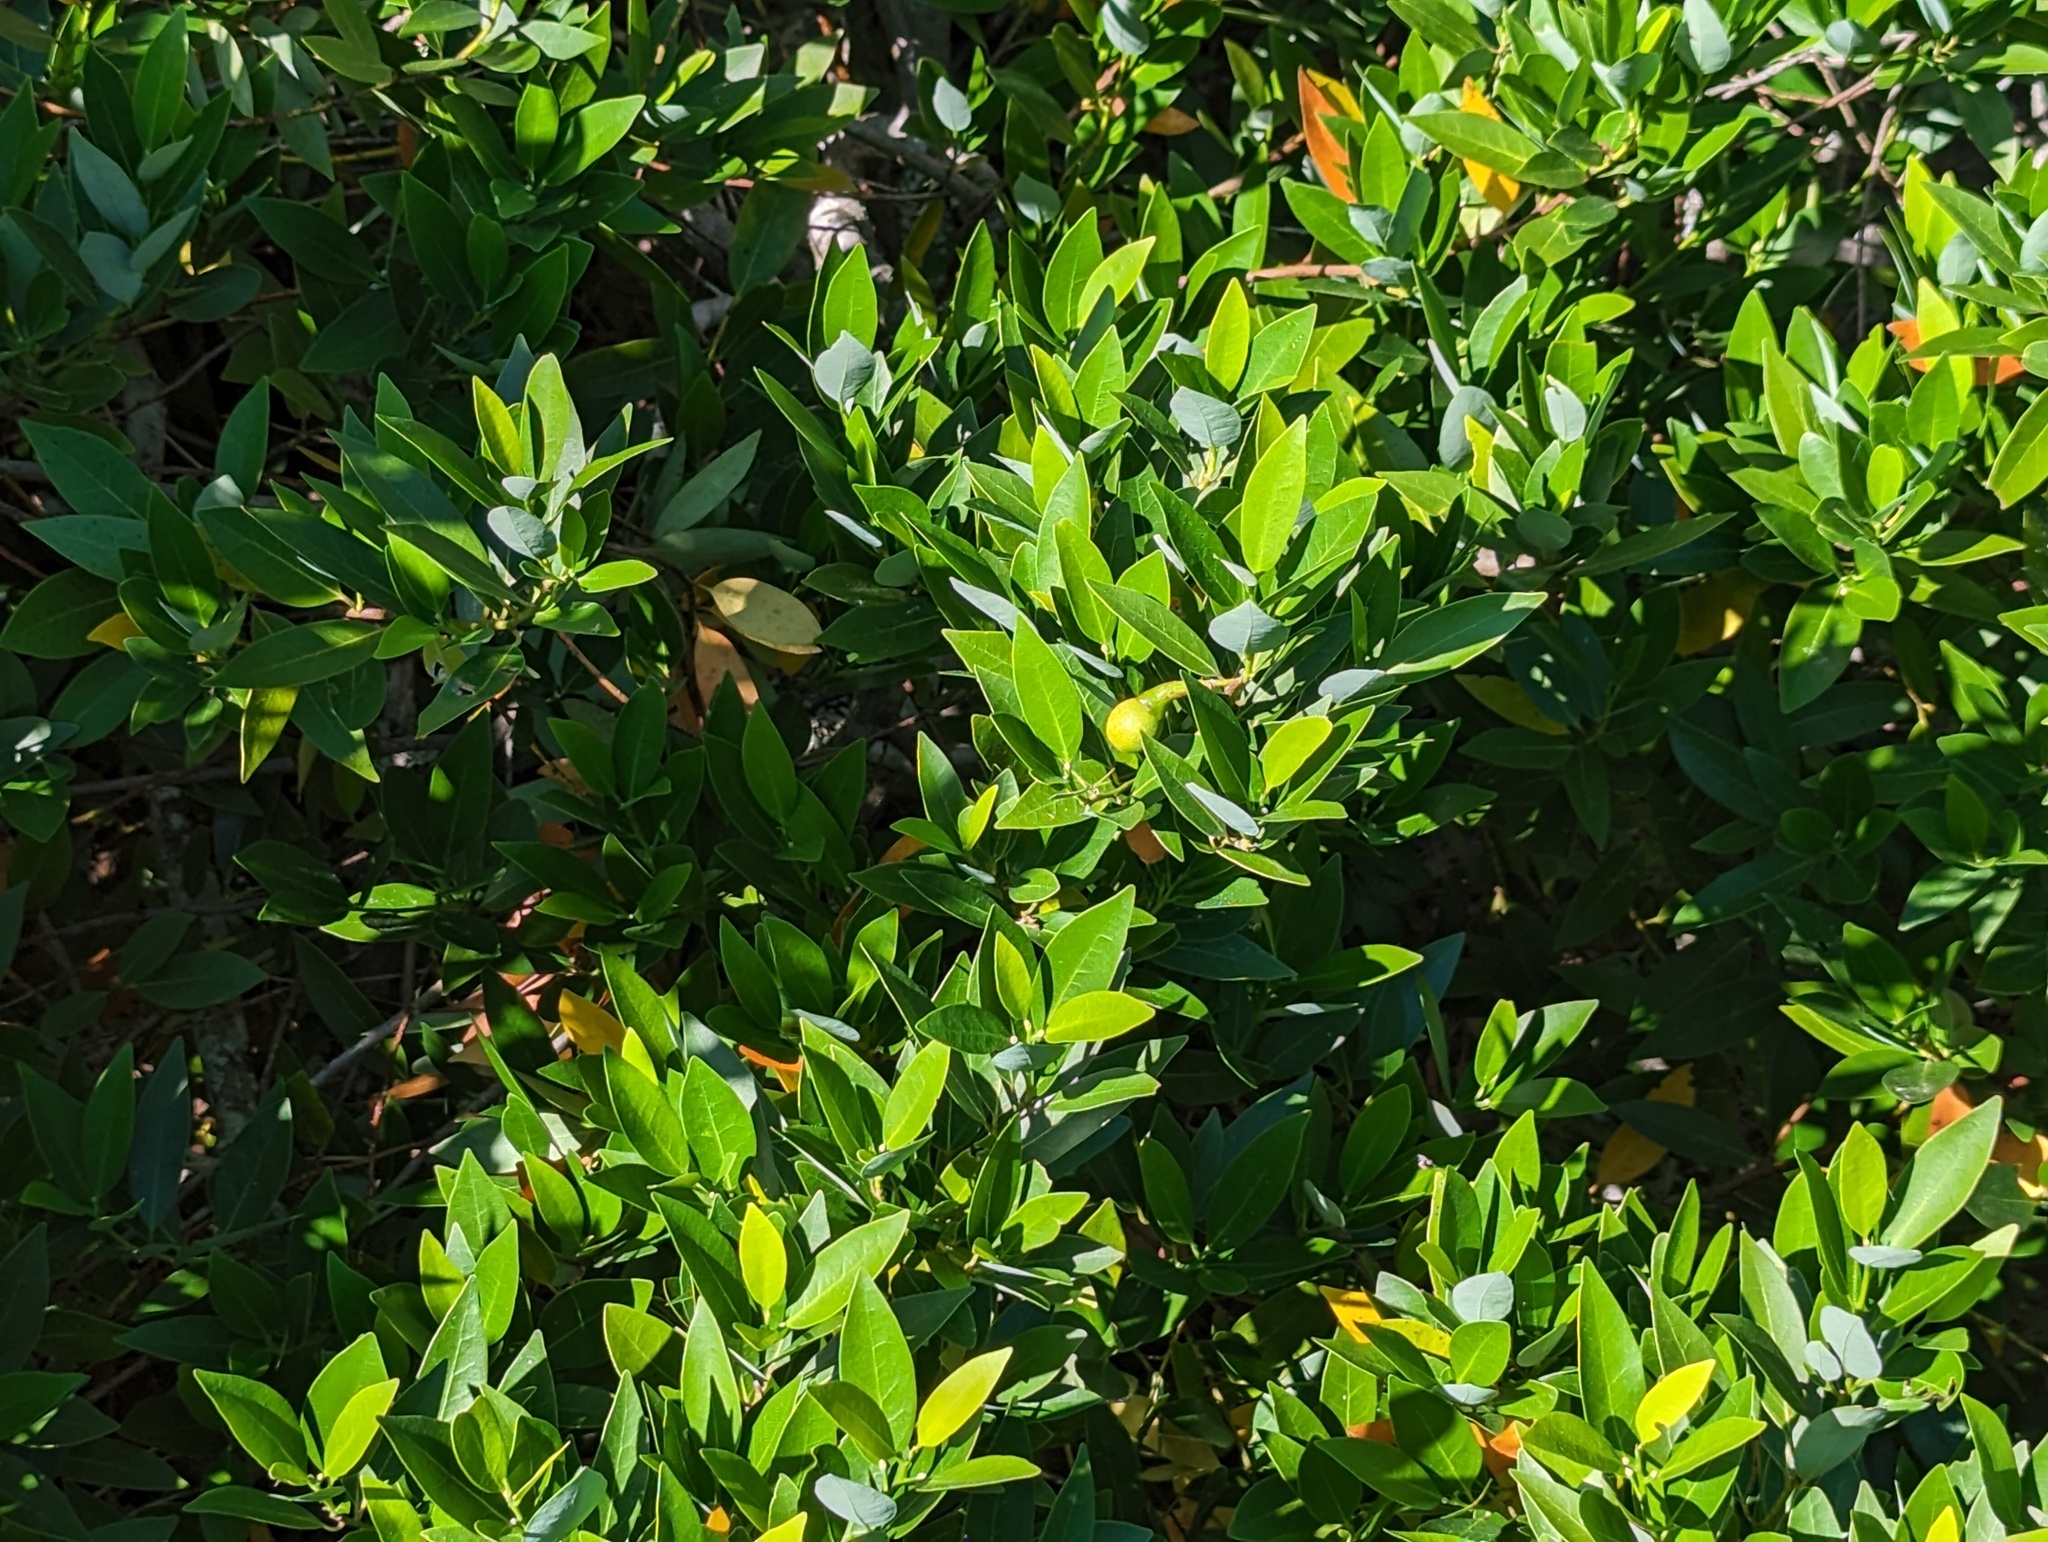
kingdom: Plantae
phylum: Tracheophyta
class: Magnoliopsida
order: Laurales
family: Lauraceae
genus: Umbellularia
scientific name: Umbellularia californica
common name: California bay
